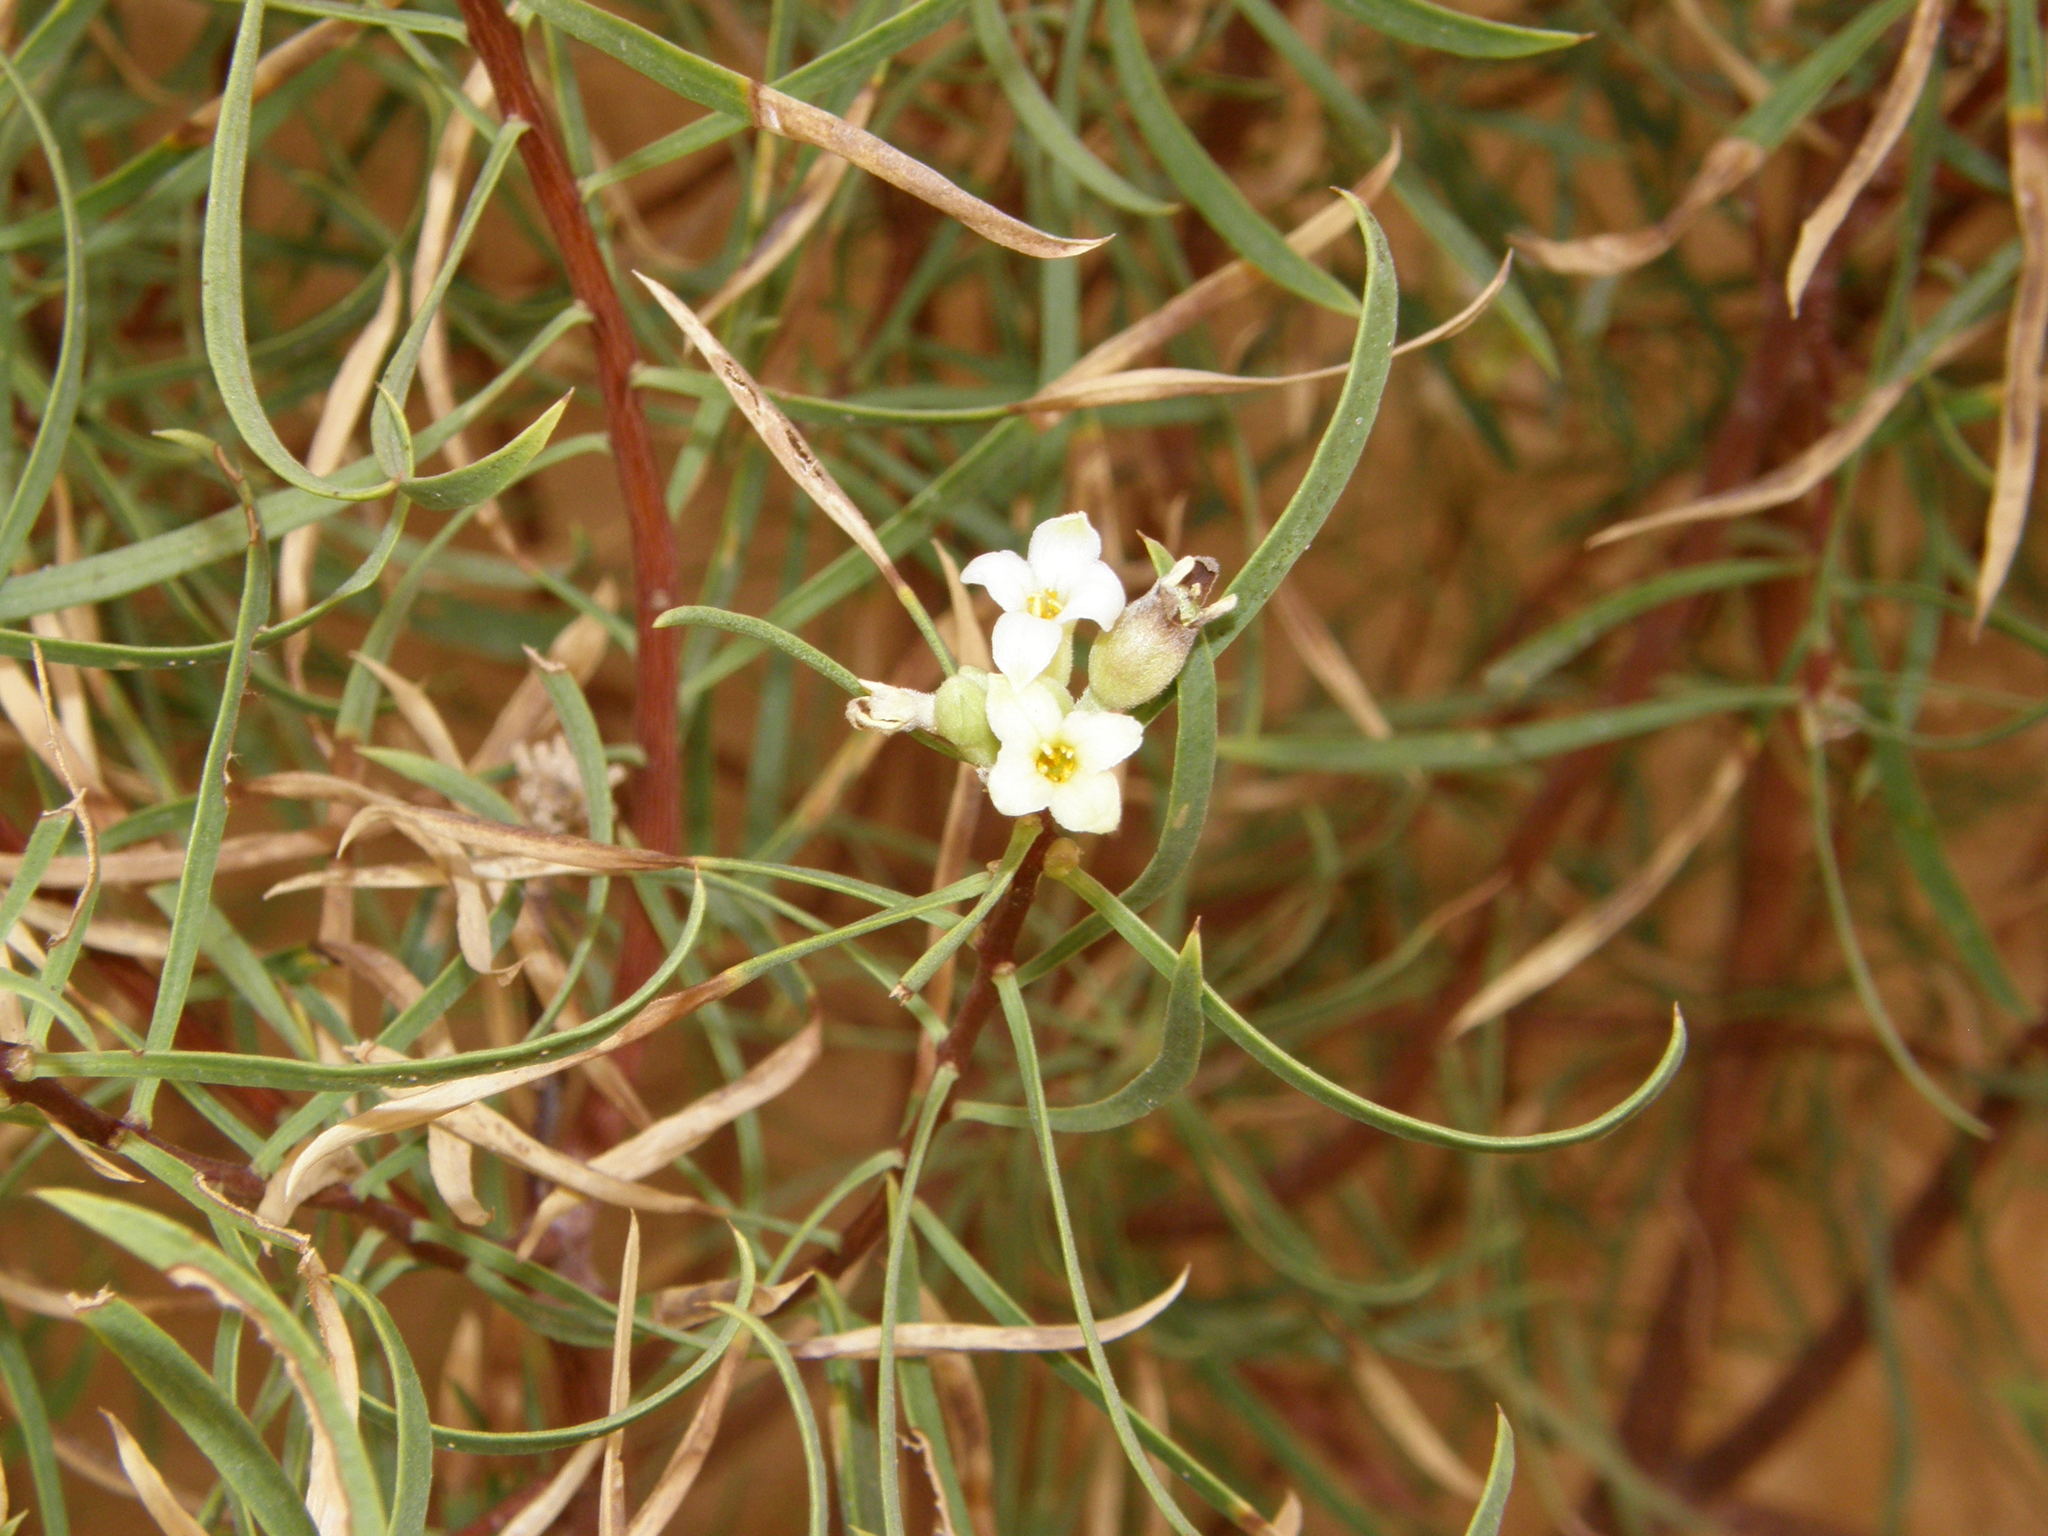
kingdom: Plantae
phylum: Tracheophyta
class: Magnoliopsida
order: Malvales
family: Thymelaeaceae
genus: Daphne
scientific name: Daphne mucronata
